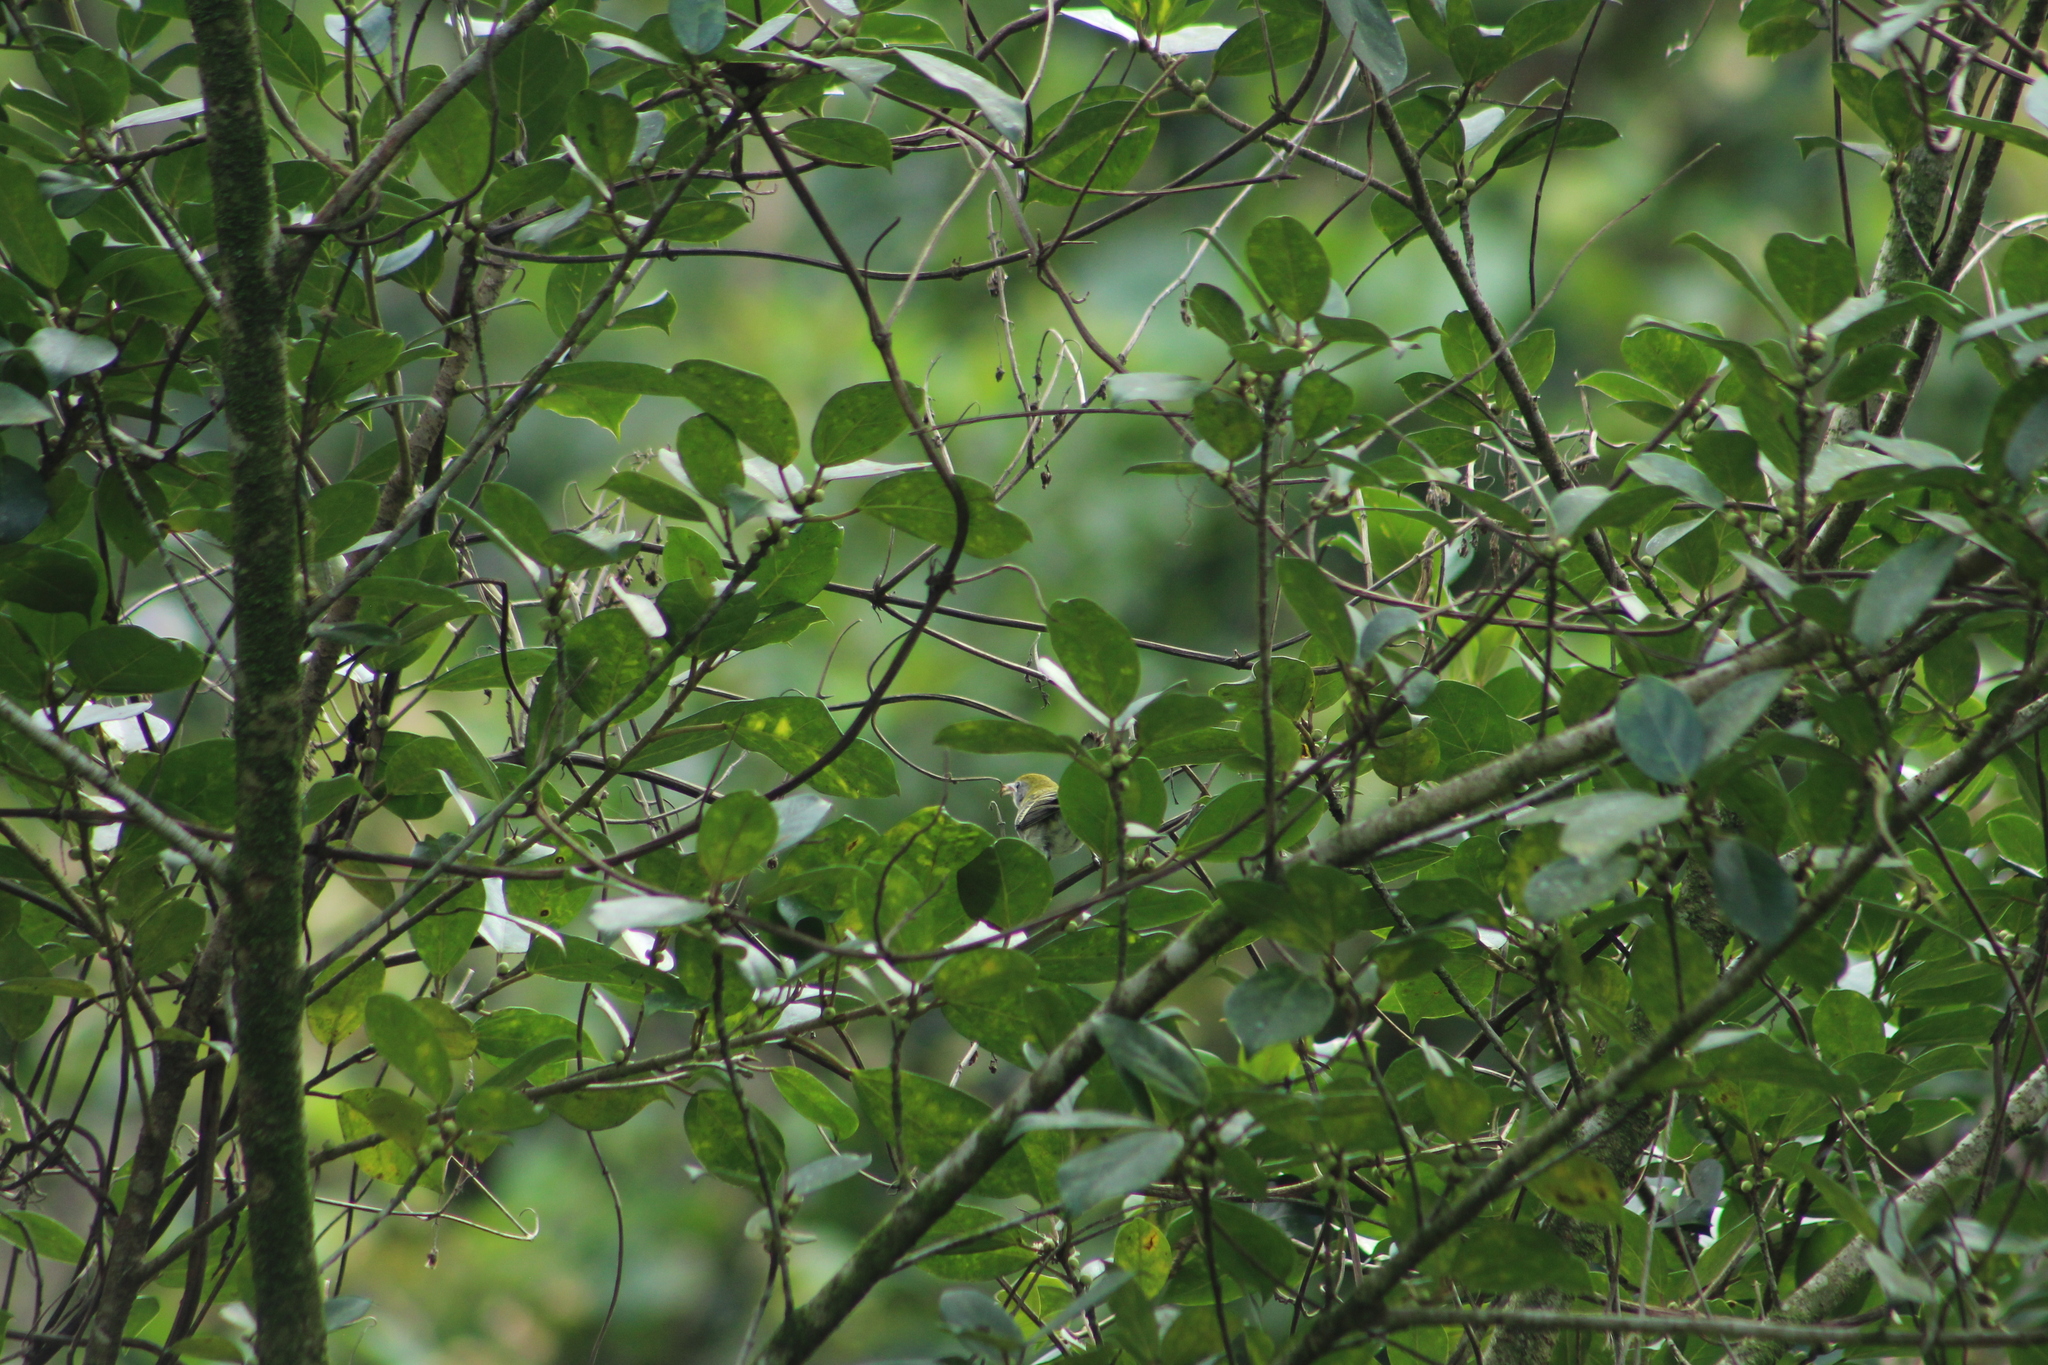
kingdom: Animalia
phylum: Chordata
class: Aves
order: Passeriformes
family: Parulidae
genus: Setophaga
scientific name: Setophaga pensylvanica
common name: Chestnut-sided warbler
